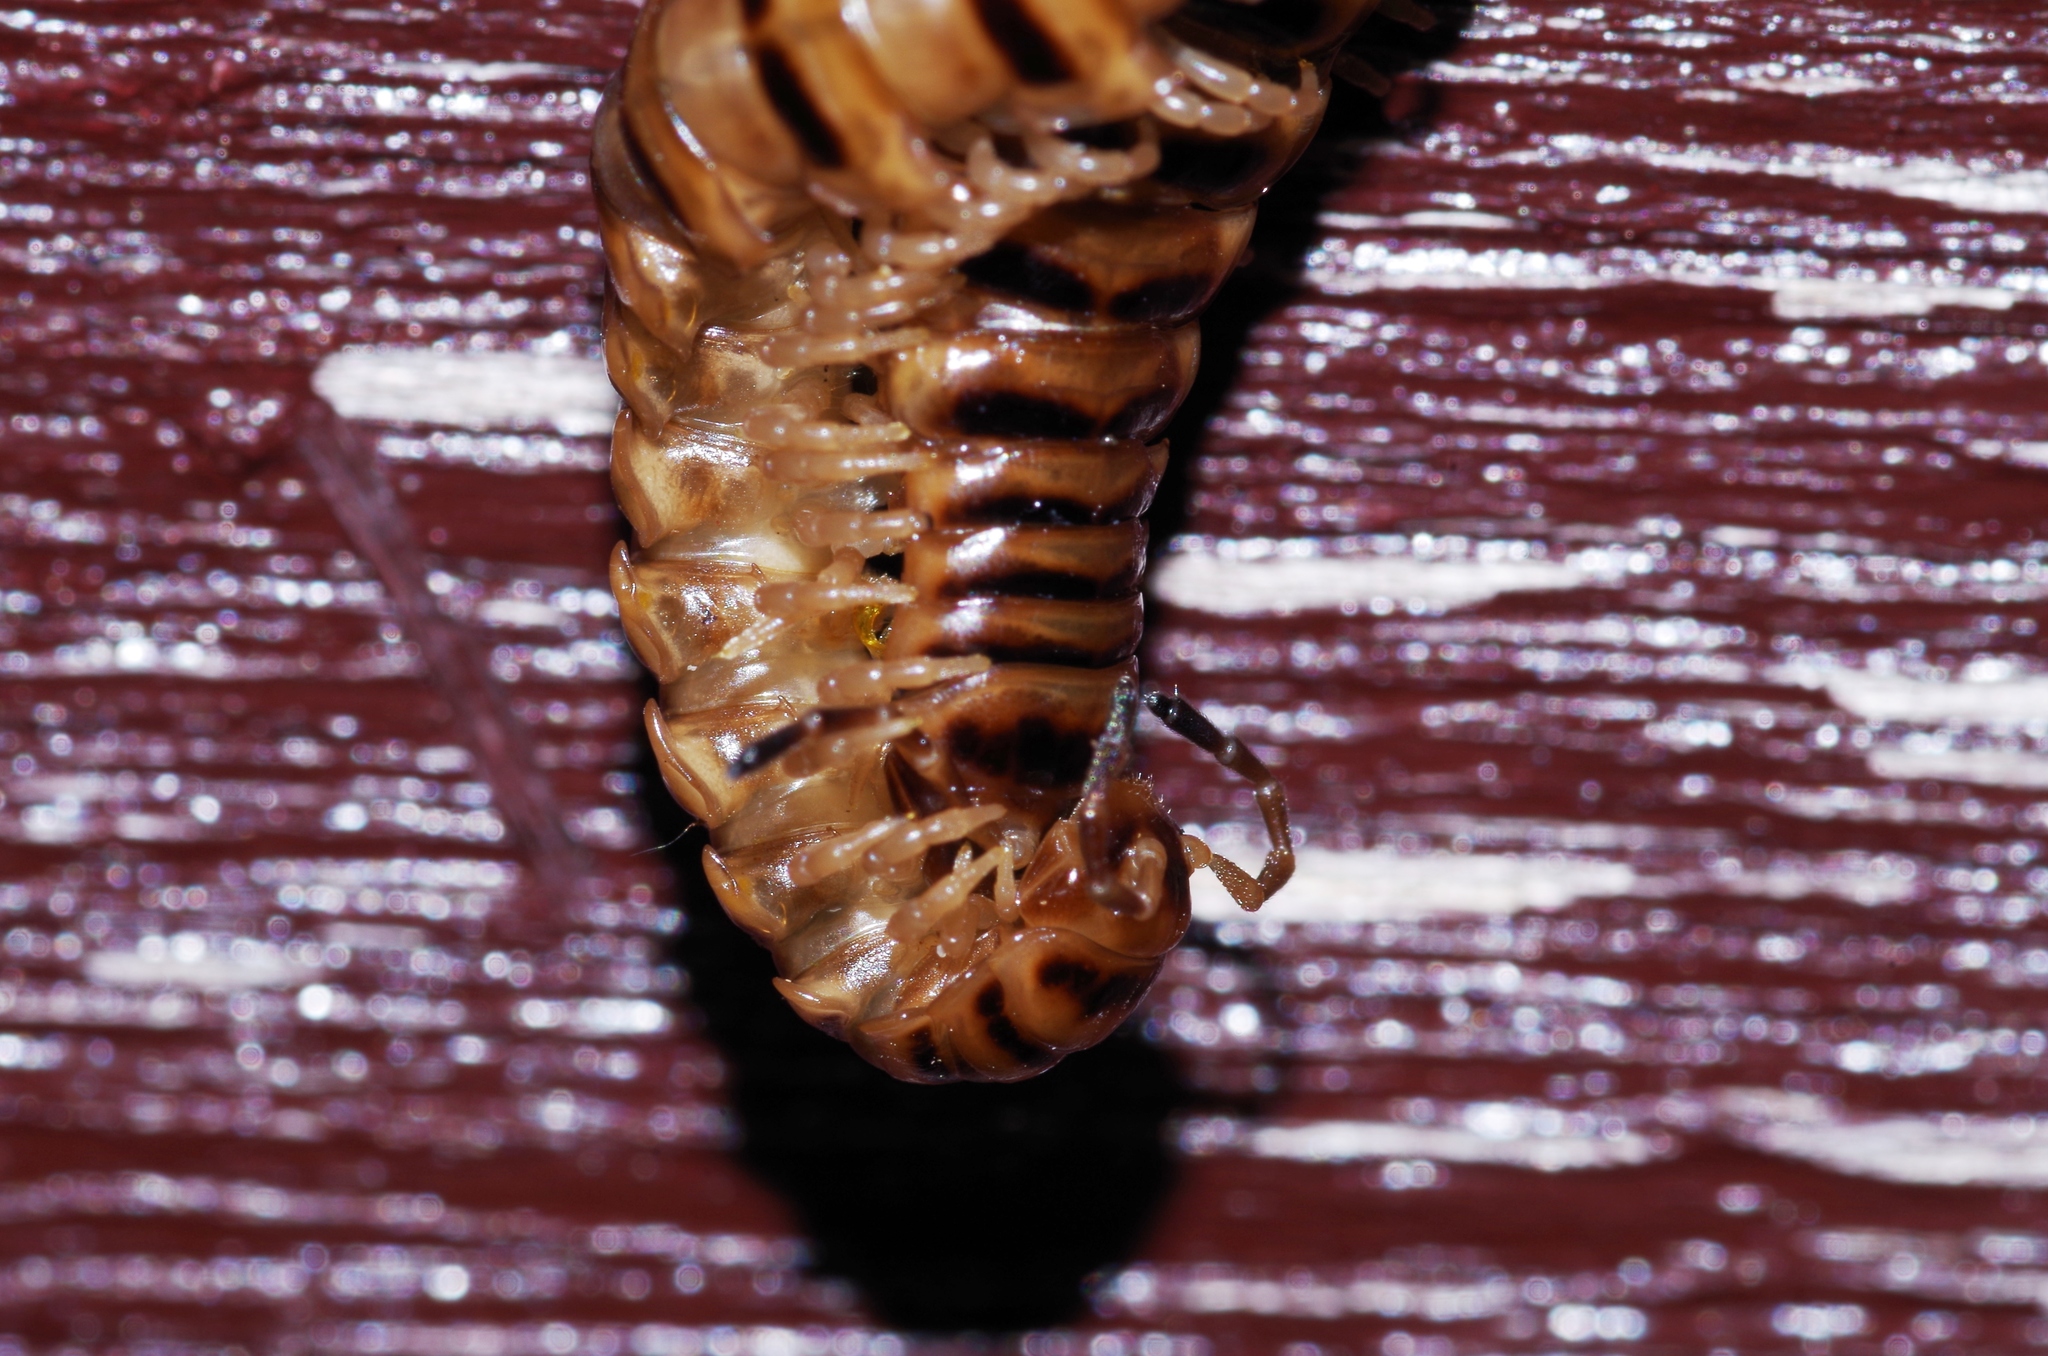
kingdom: Animalia
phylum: Arthropoda
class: Diplopoda
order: Polydesmida
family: Paradoxosomatidae
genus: Chamberlinius
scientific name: Chamberlinius hualienensis
